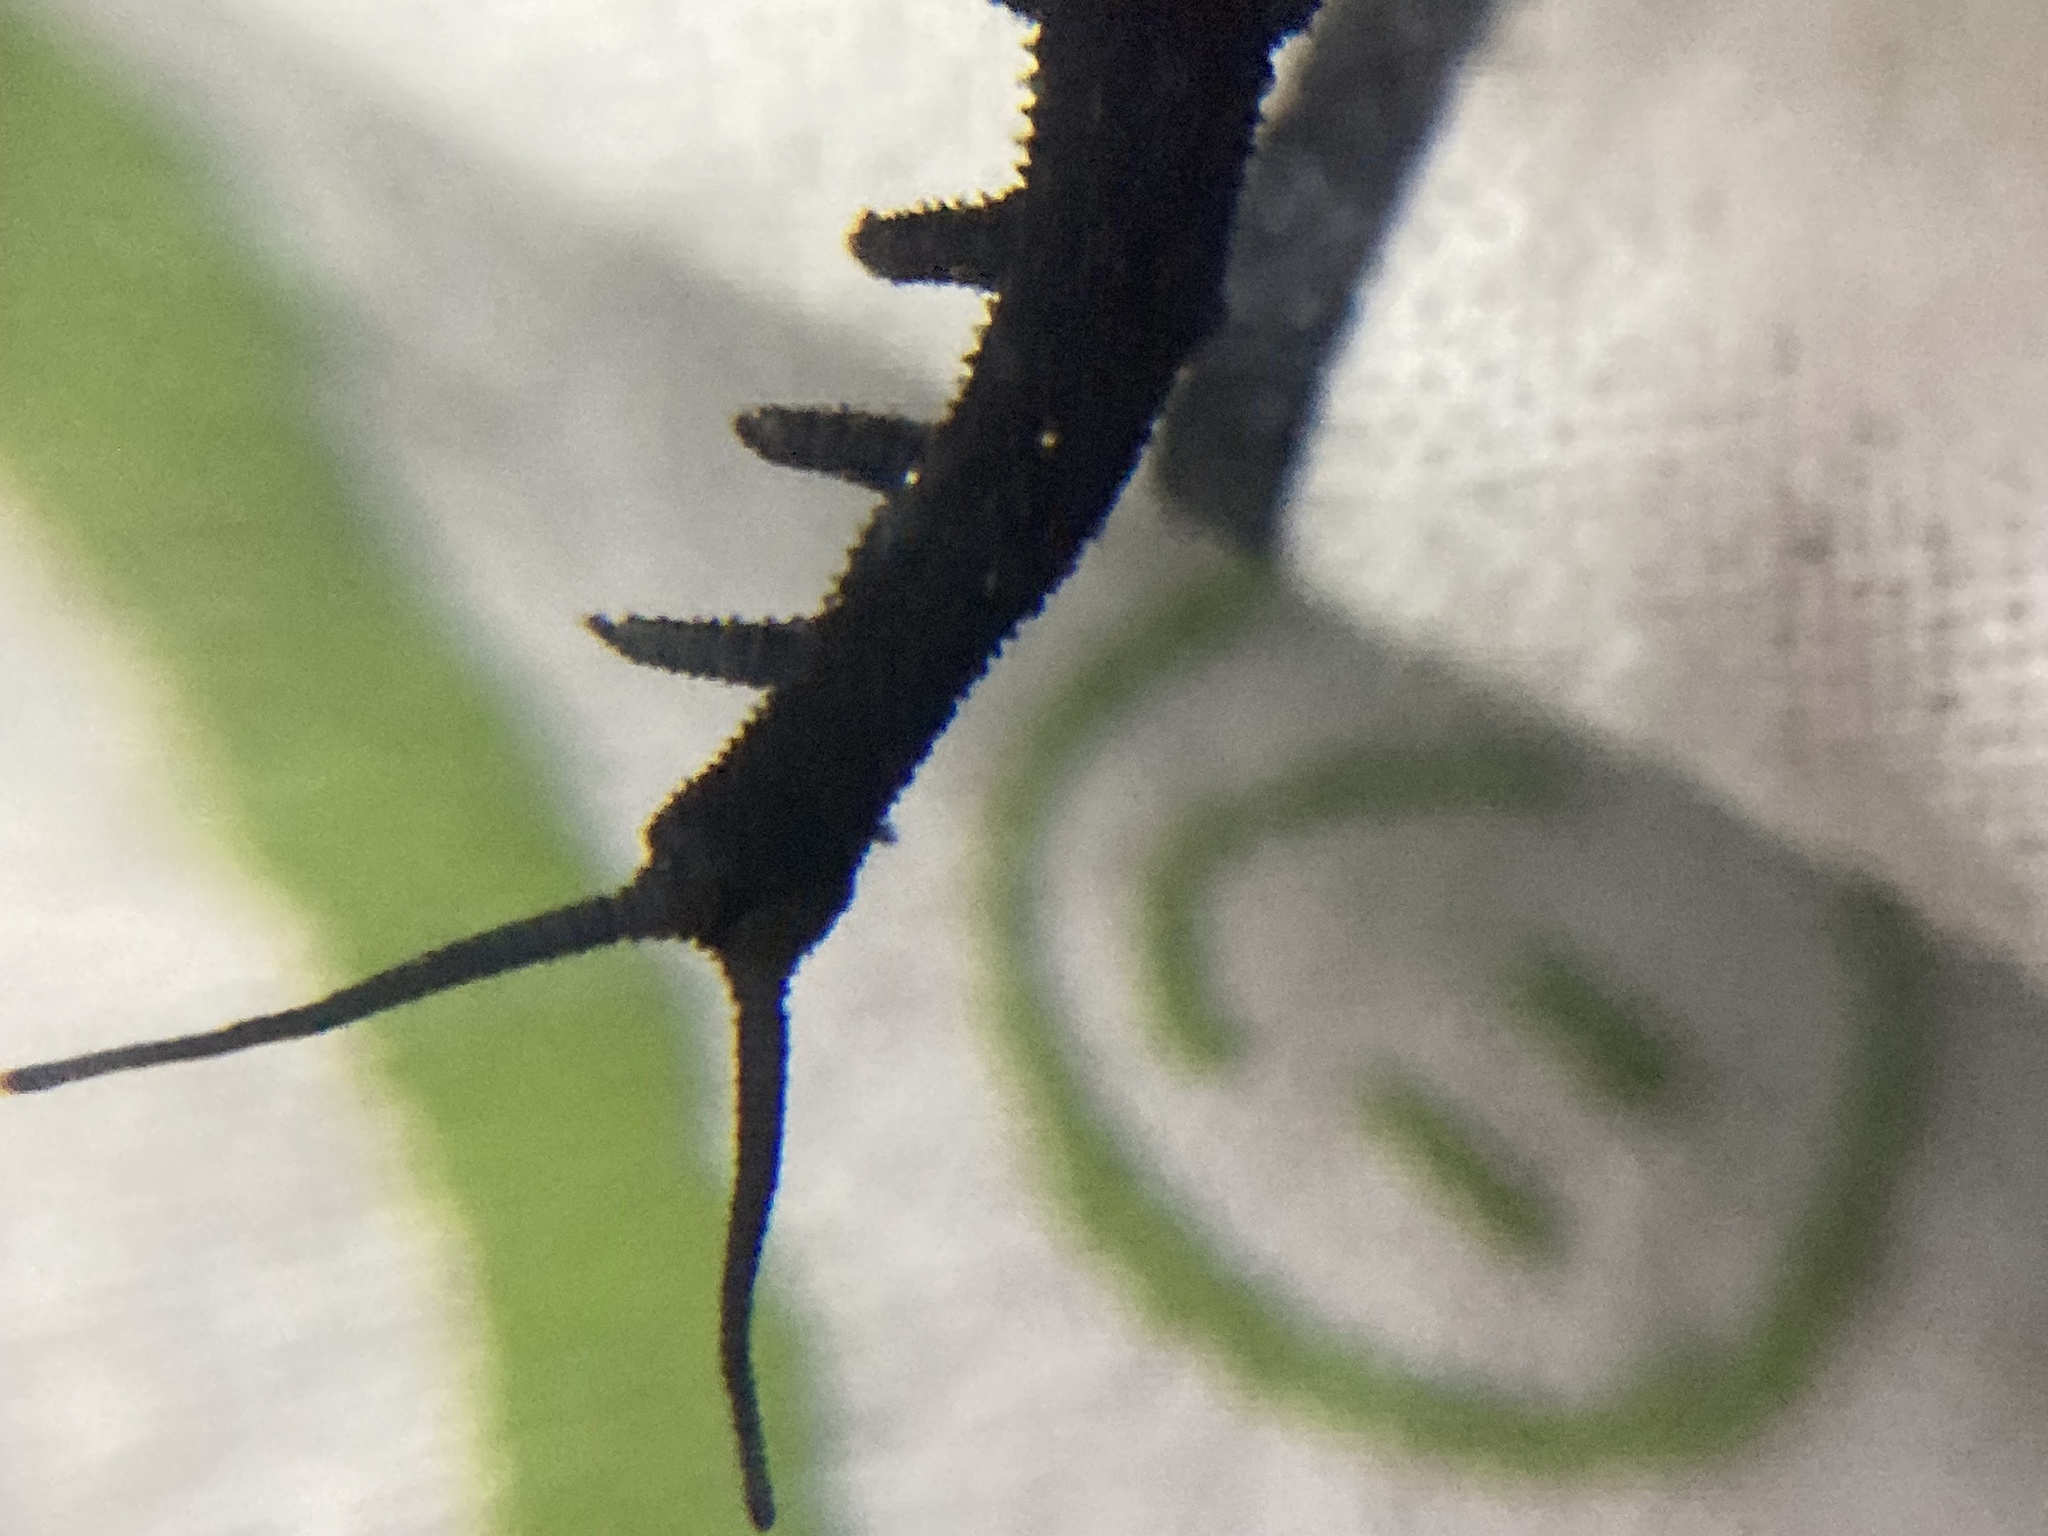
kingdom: Animalia
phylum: Onychophora
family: Peripatopsidae
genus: Anoplokaros
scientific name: Anoplokaros keerensis
